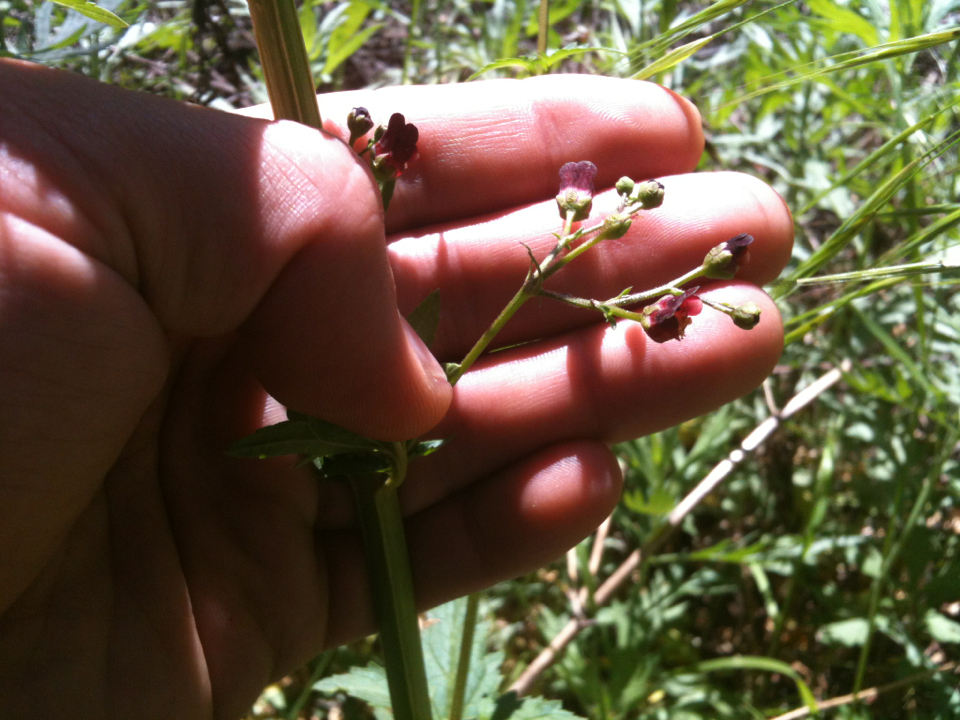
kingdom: Plantae
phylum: Tracheophyta
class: Magnoliopsida
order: Lamiales
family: Scrophulariaceae
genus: Scrophularia
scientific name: Scrophularia californica
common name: California figwort
